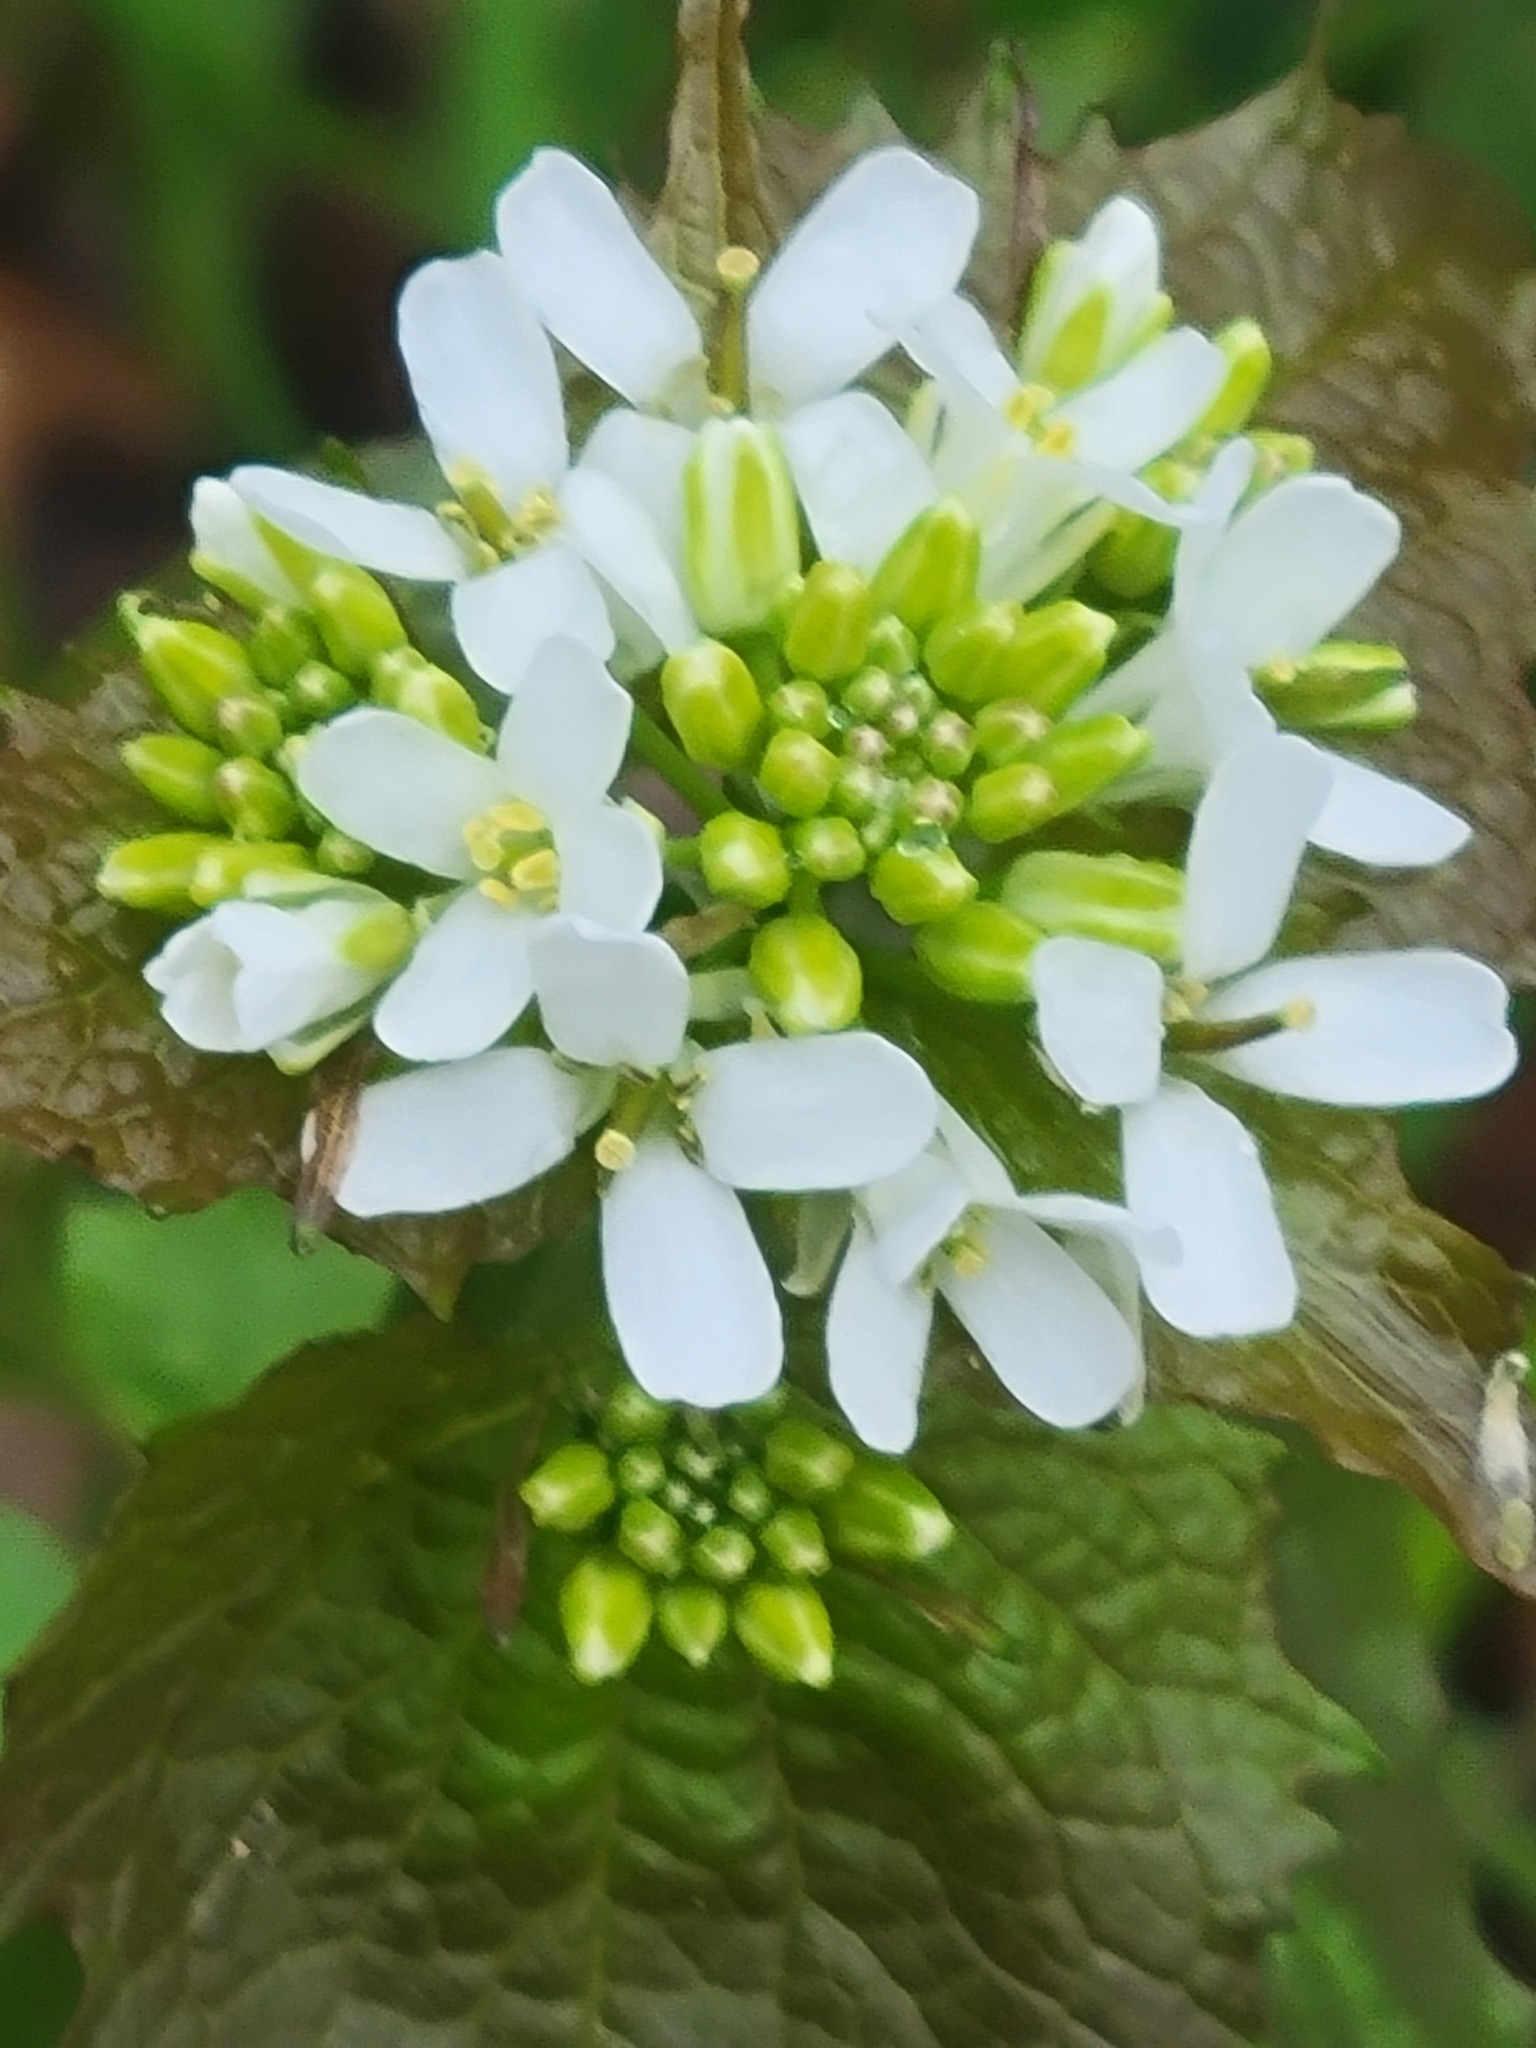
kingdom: Plantae
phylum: Tracheophyta
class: Magnoliopsida
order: Brassicales
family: Brassicaceae
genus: Alliaria
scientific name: Alliaria petiolata
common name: Garlic mustard
